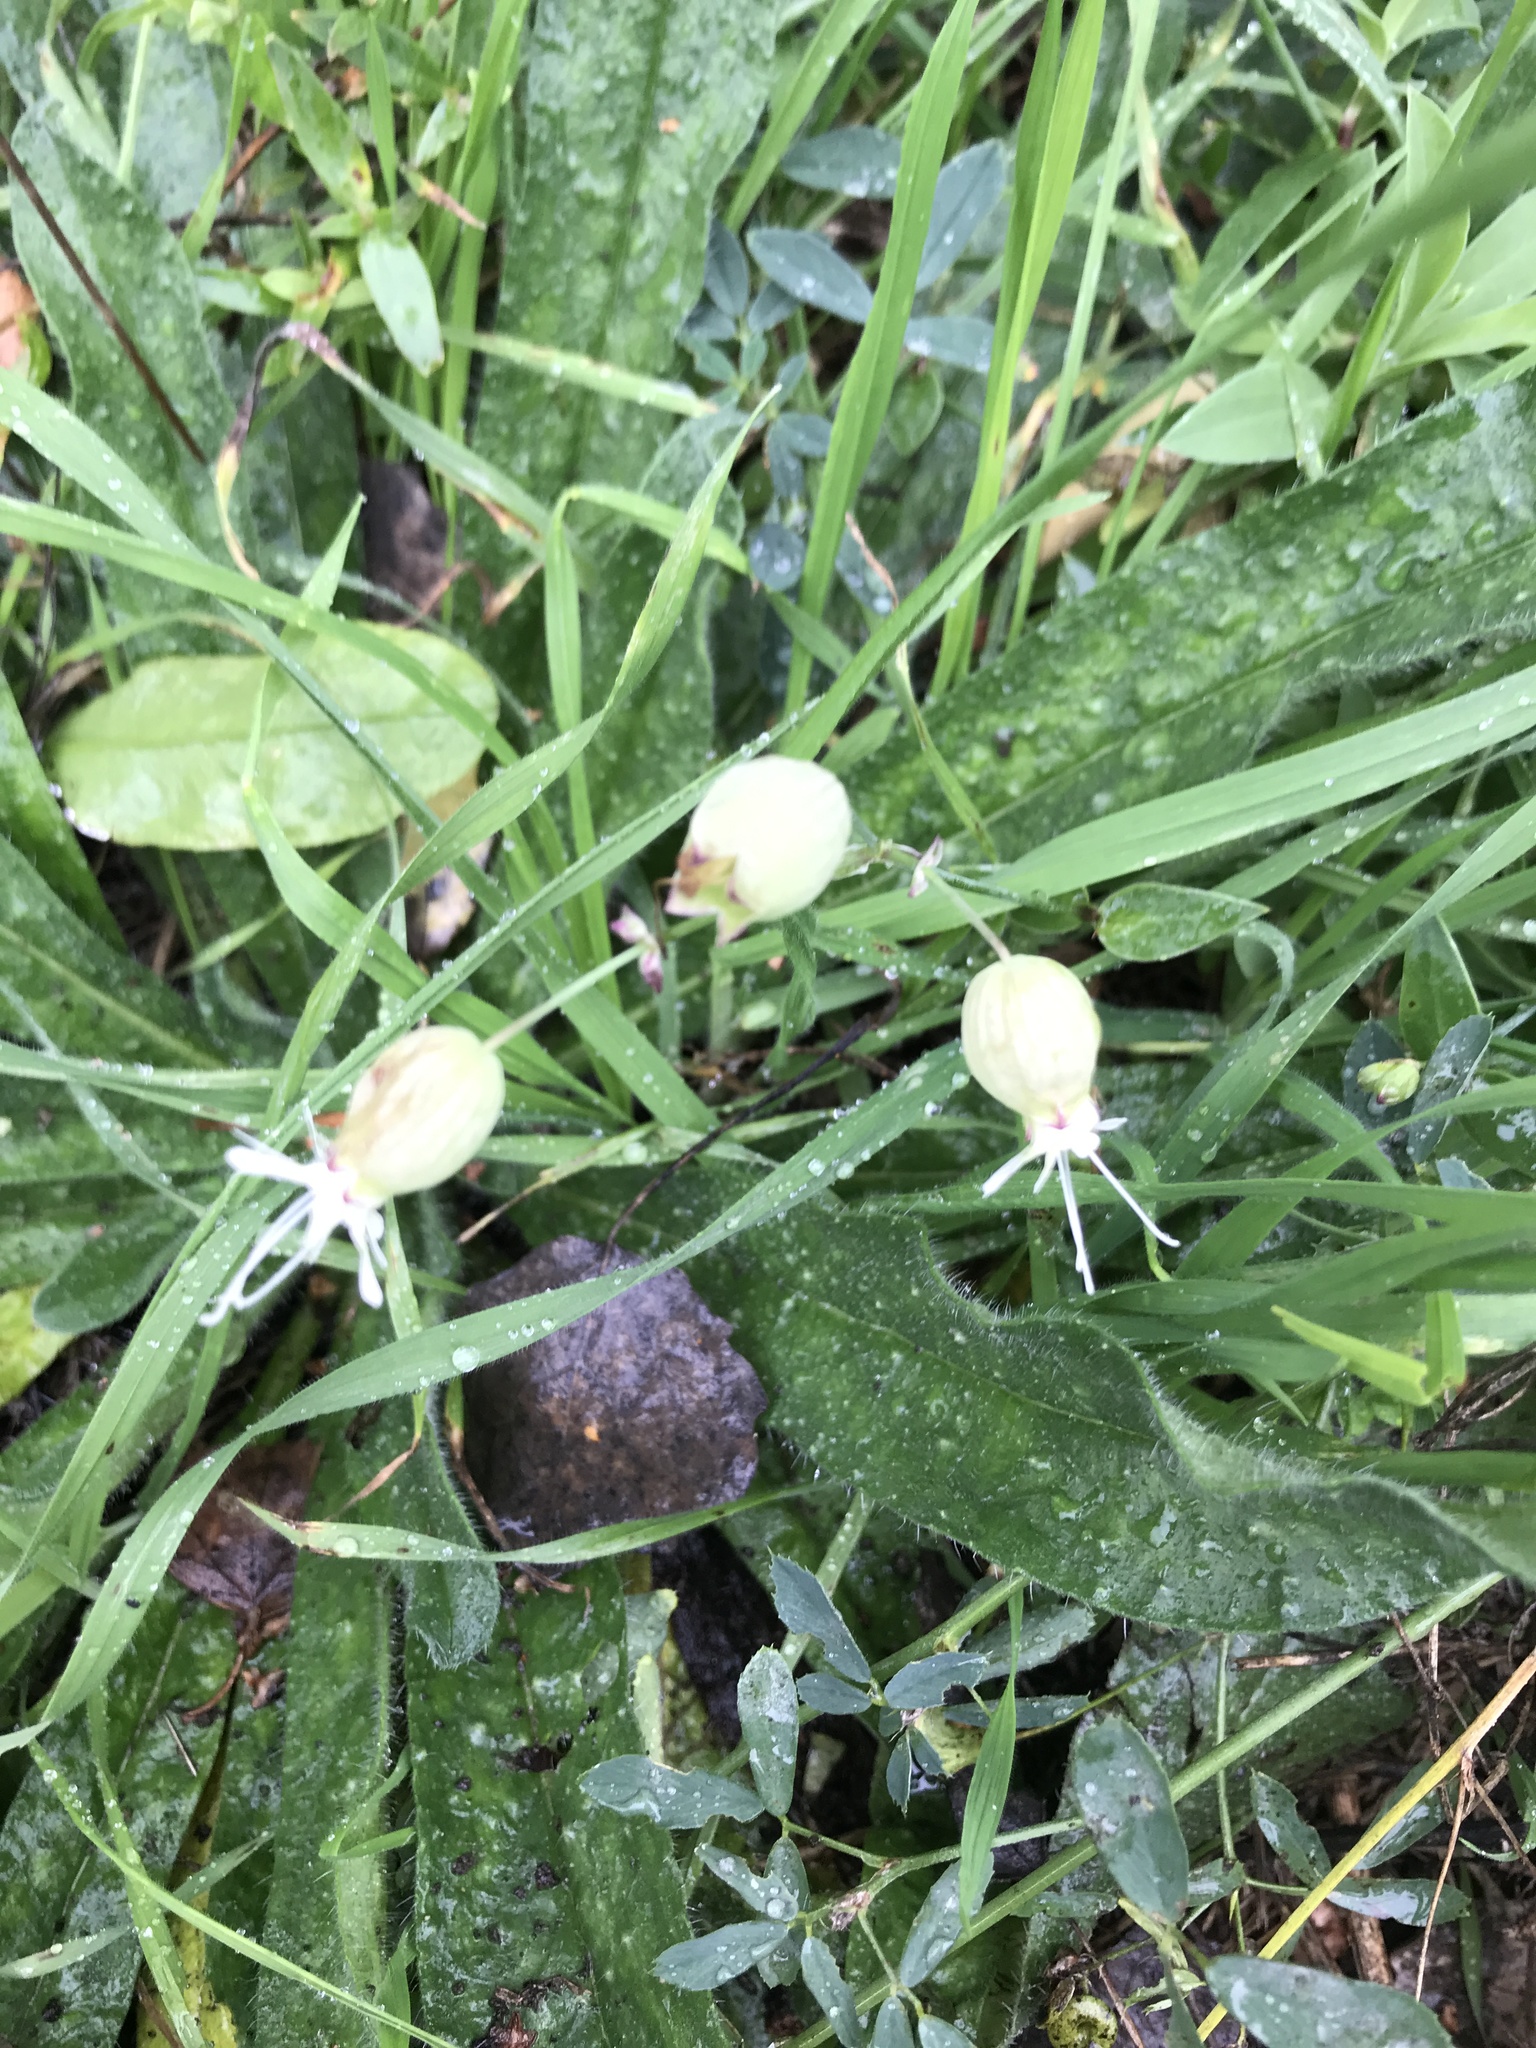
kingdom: Plantae
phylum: Tracheophyta
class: Magnoliopsida
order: Caryophyllales
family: Caryophyllaceae
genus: Silene
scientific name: Silene vulgaris
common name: Bladder campion
